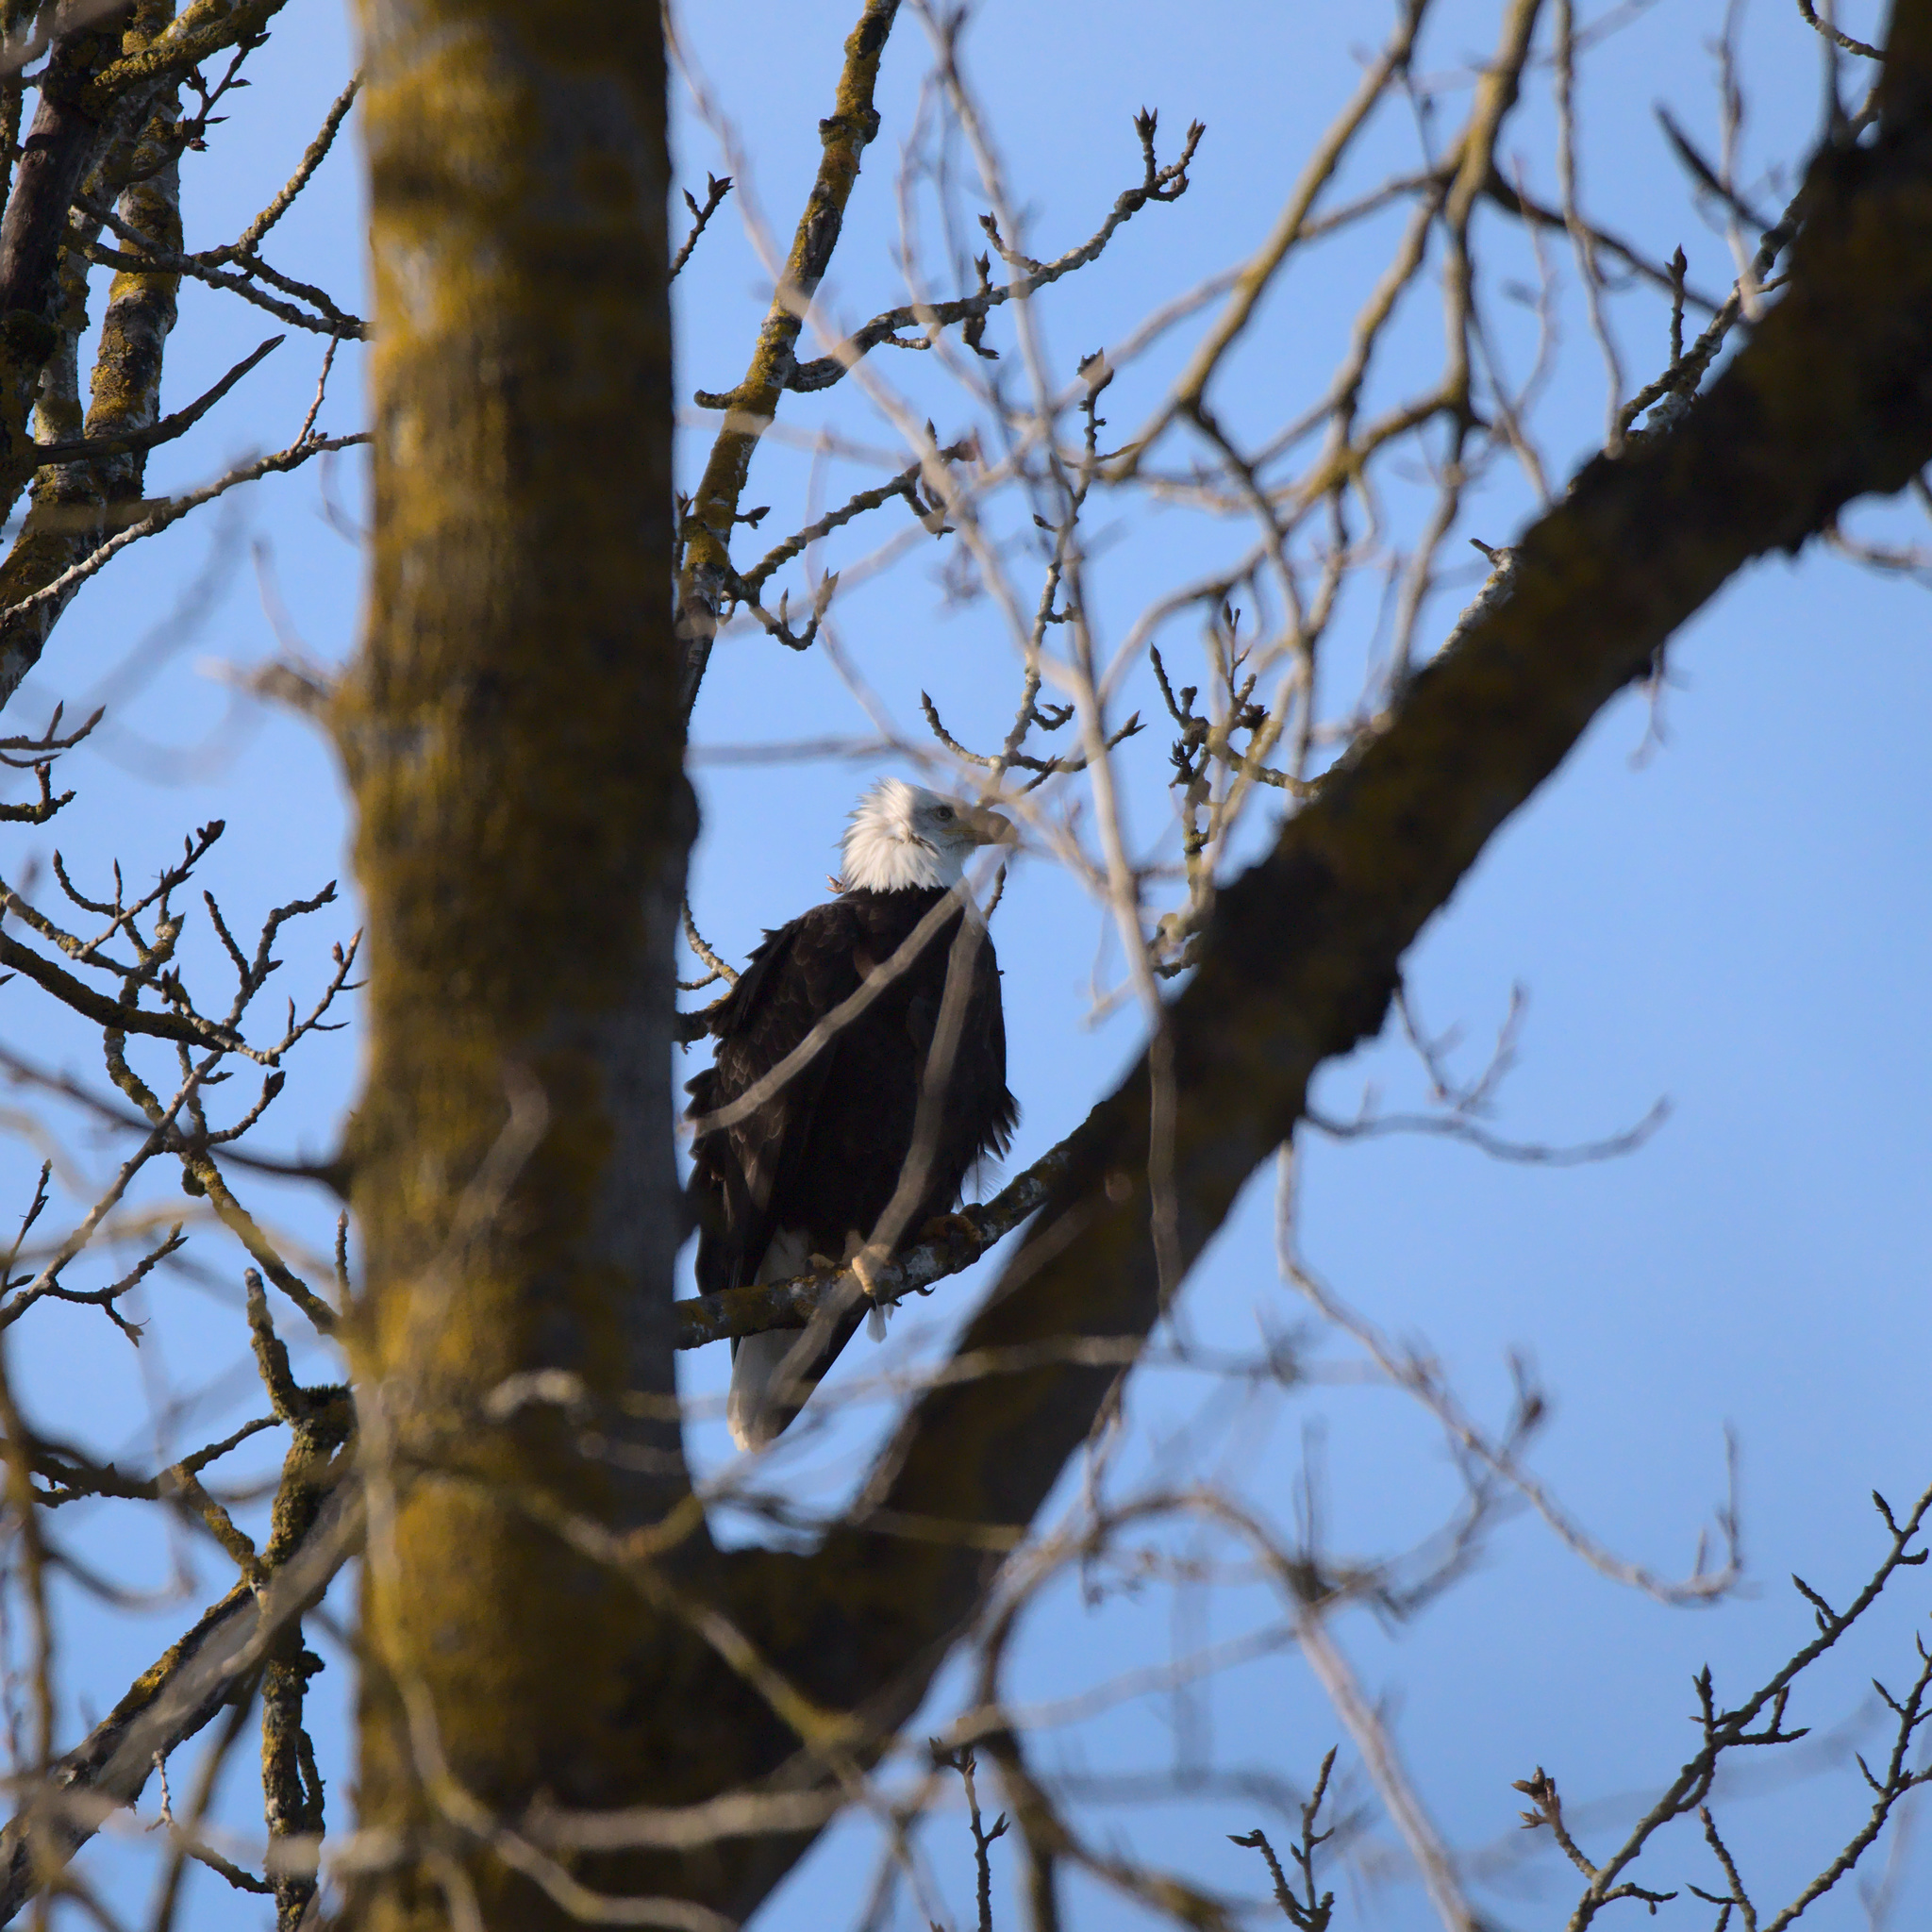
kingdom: Animalia
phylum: Chordata
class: Aves
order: Accipitriformes
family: Accipitridae
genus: Haliaeetus
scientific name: Haliaeetus leucocephalus
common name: Bald eagle
